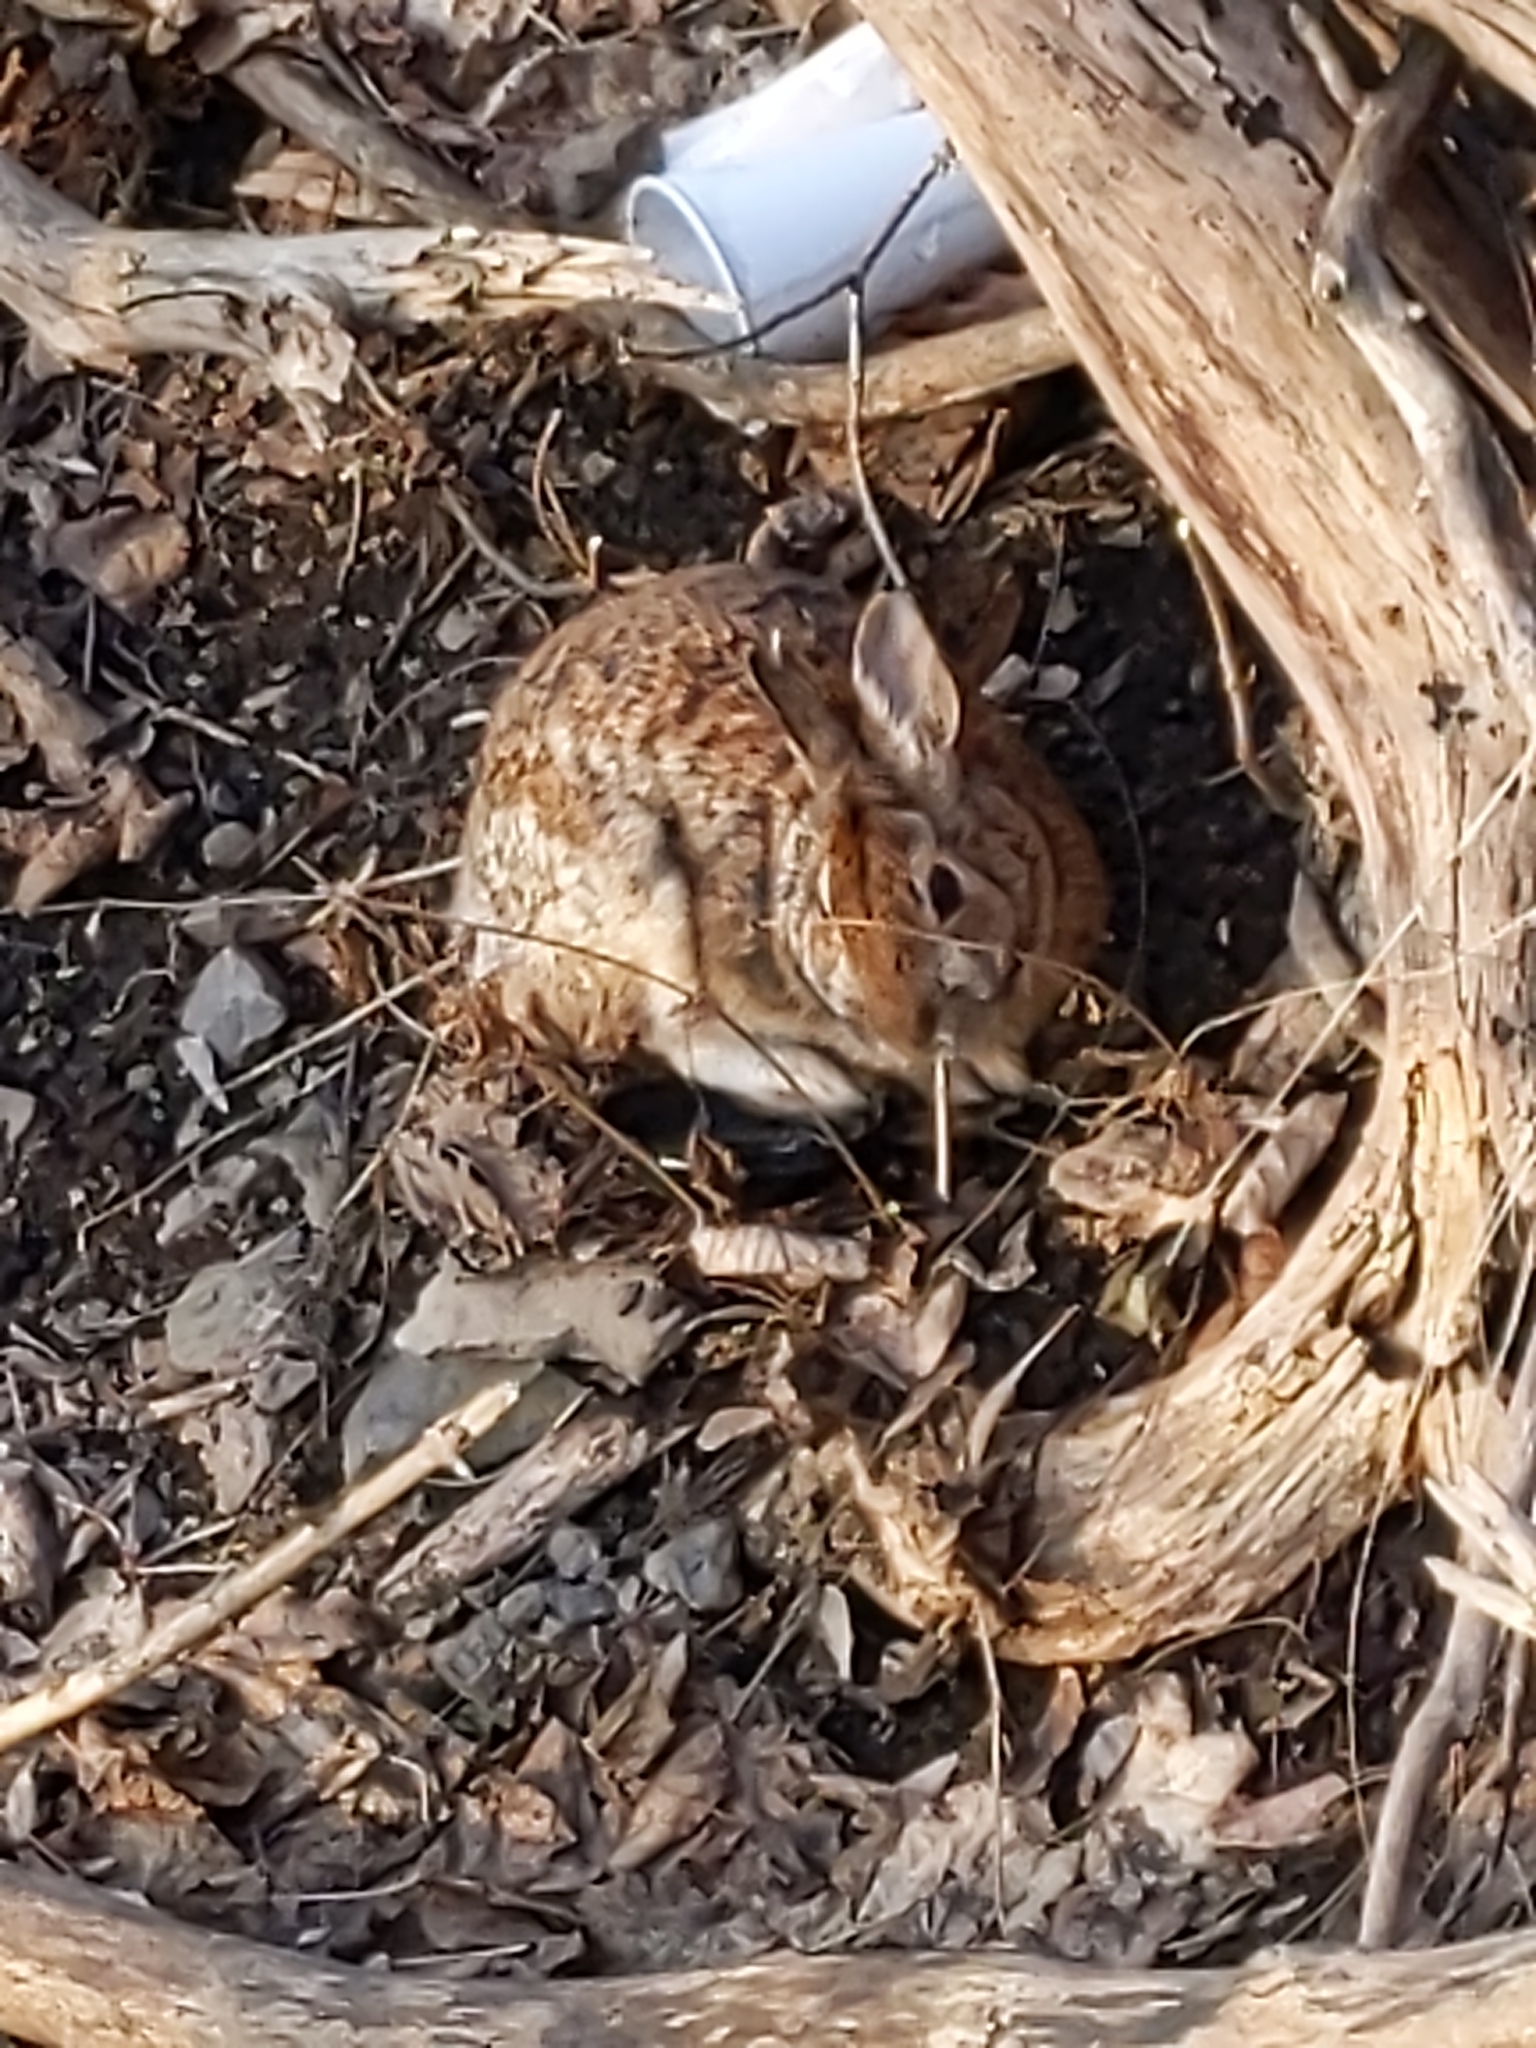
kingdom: Animalia
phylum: Chordata
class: Mammalia
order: Lagomorpha
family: Leporidae
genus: Sylvilagus
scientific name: Sylvilagus floridanus
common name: Eastern cottontail
